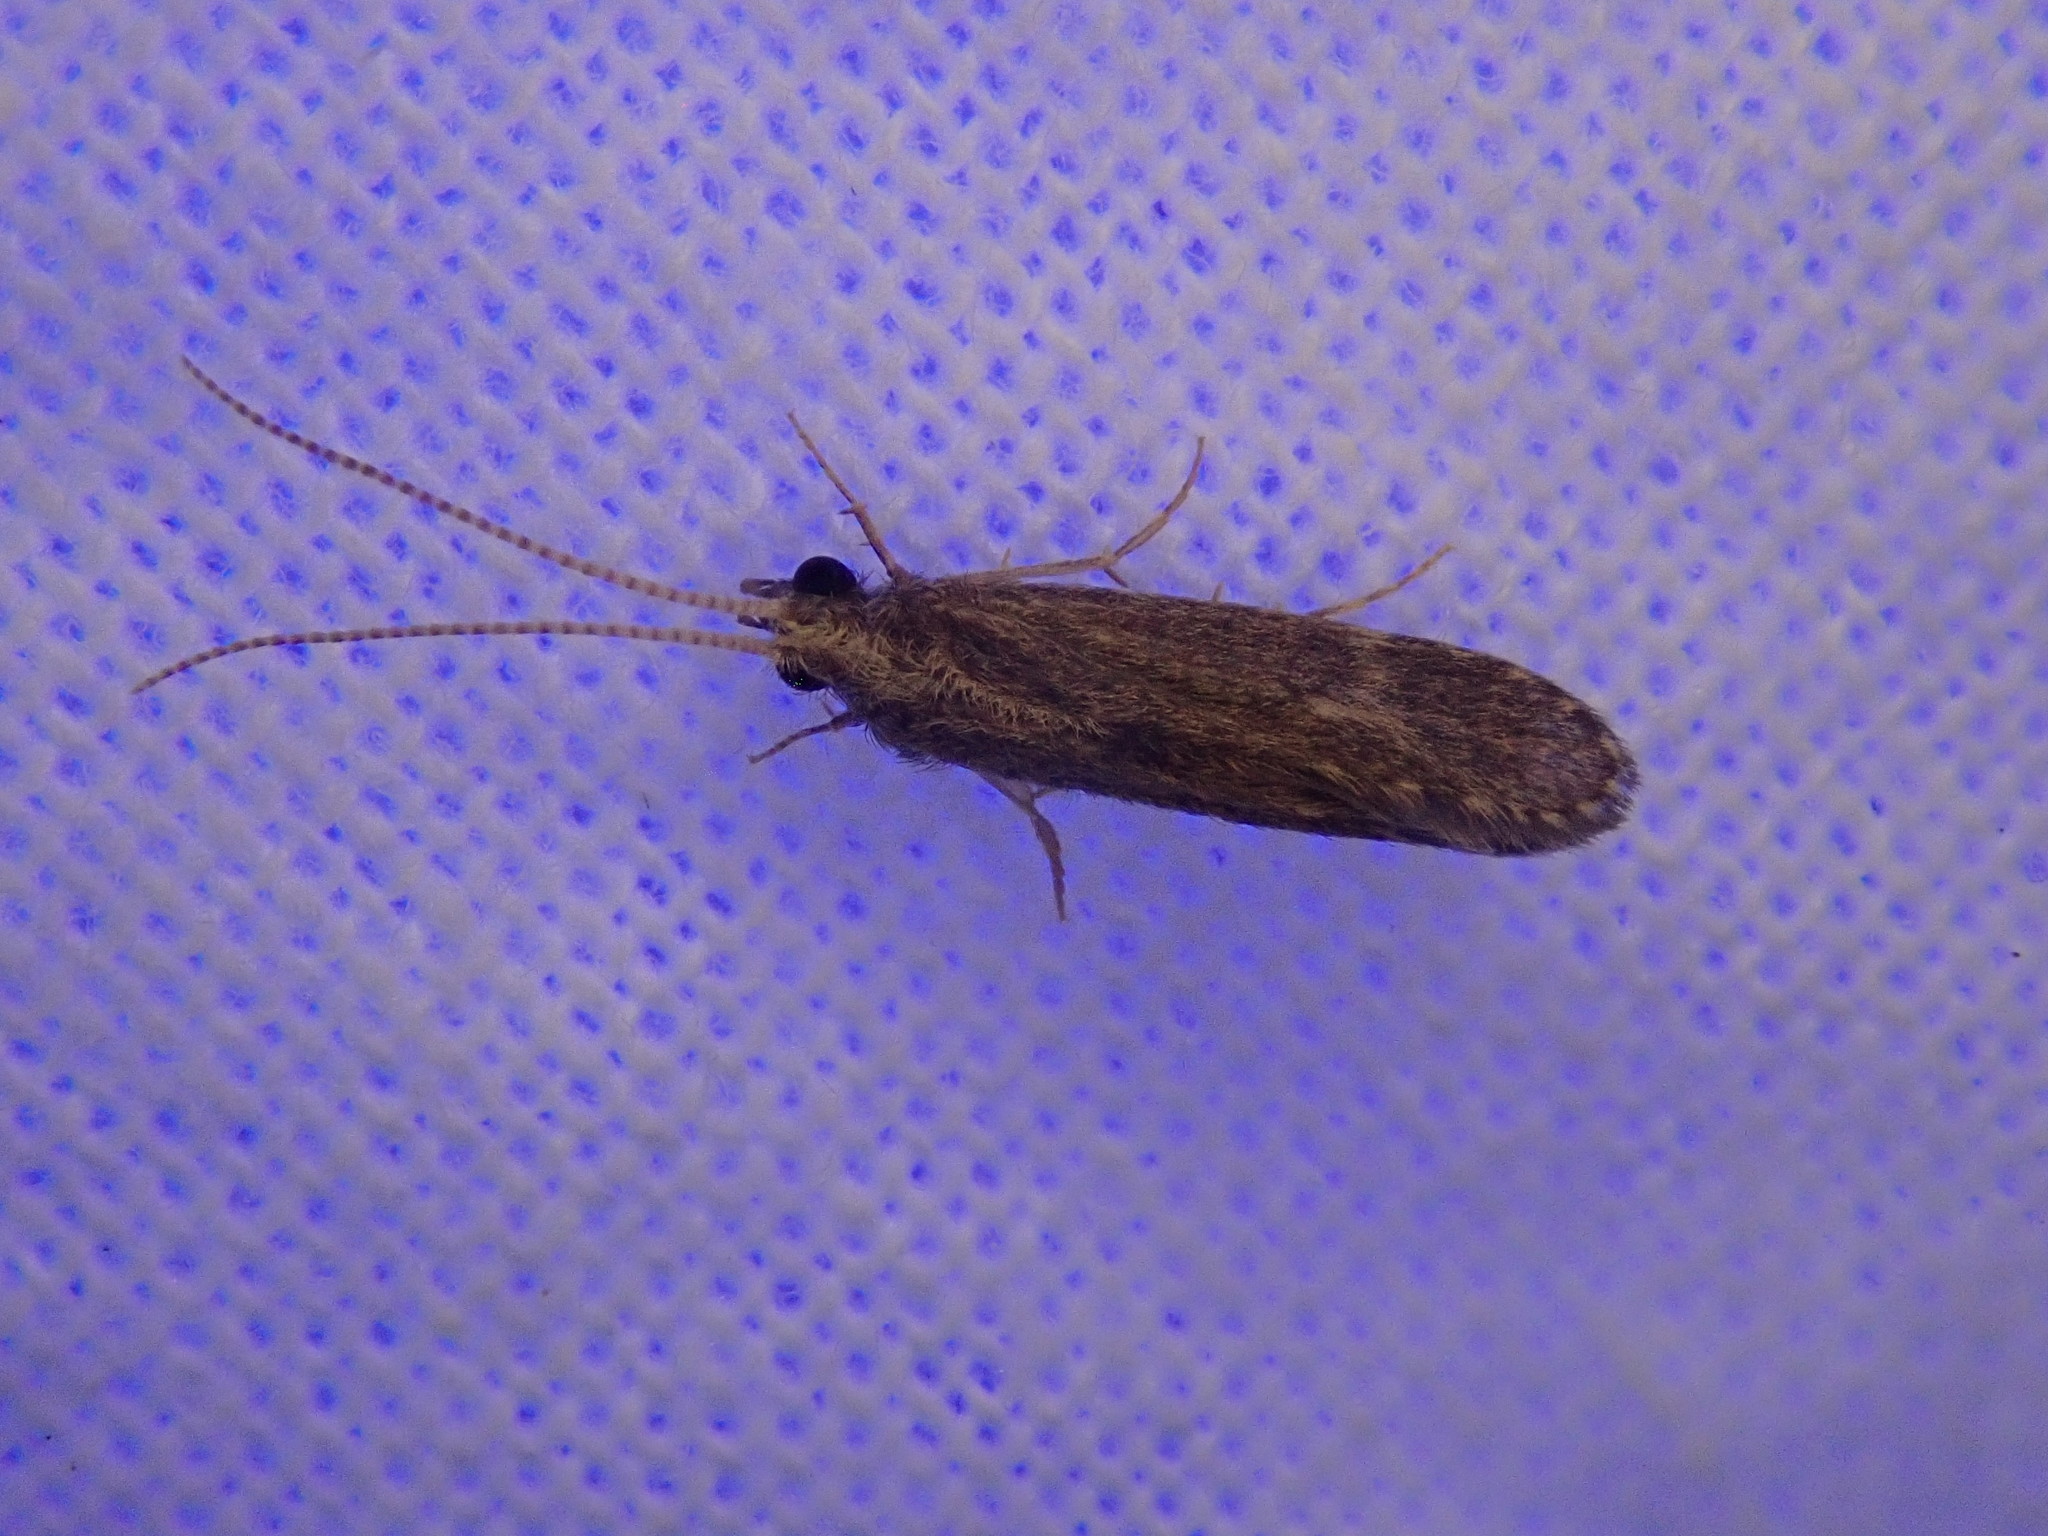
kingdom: Animalia
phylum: Arthropoda
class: Insecta
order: Trichoptera
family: Polycentropodidae
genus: Cyrnellus
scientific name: Cyrnellus fraternus
